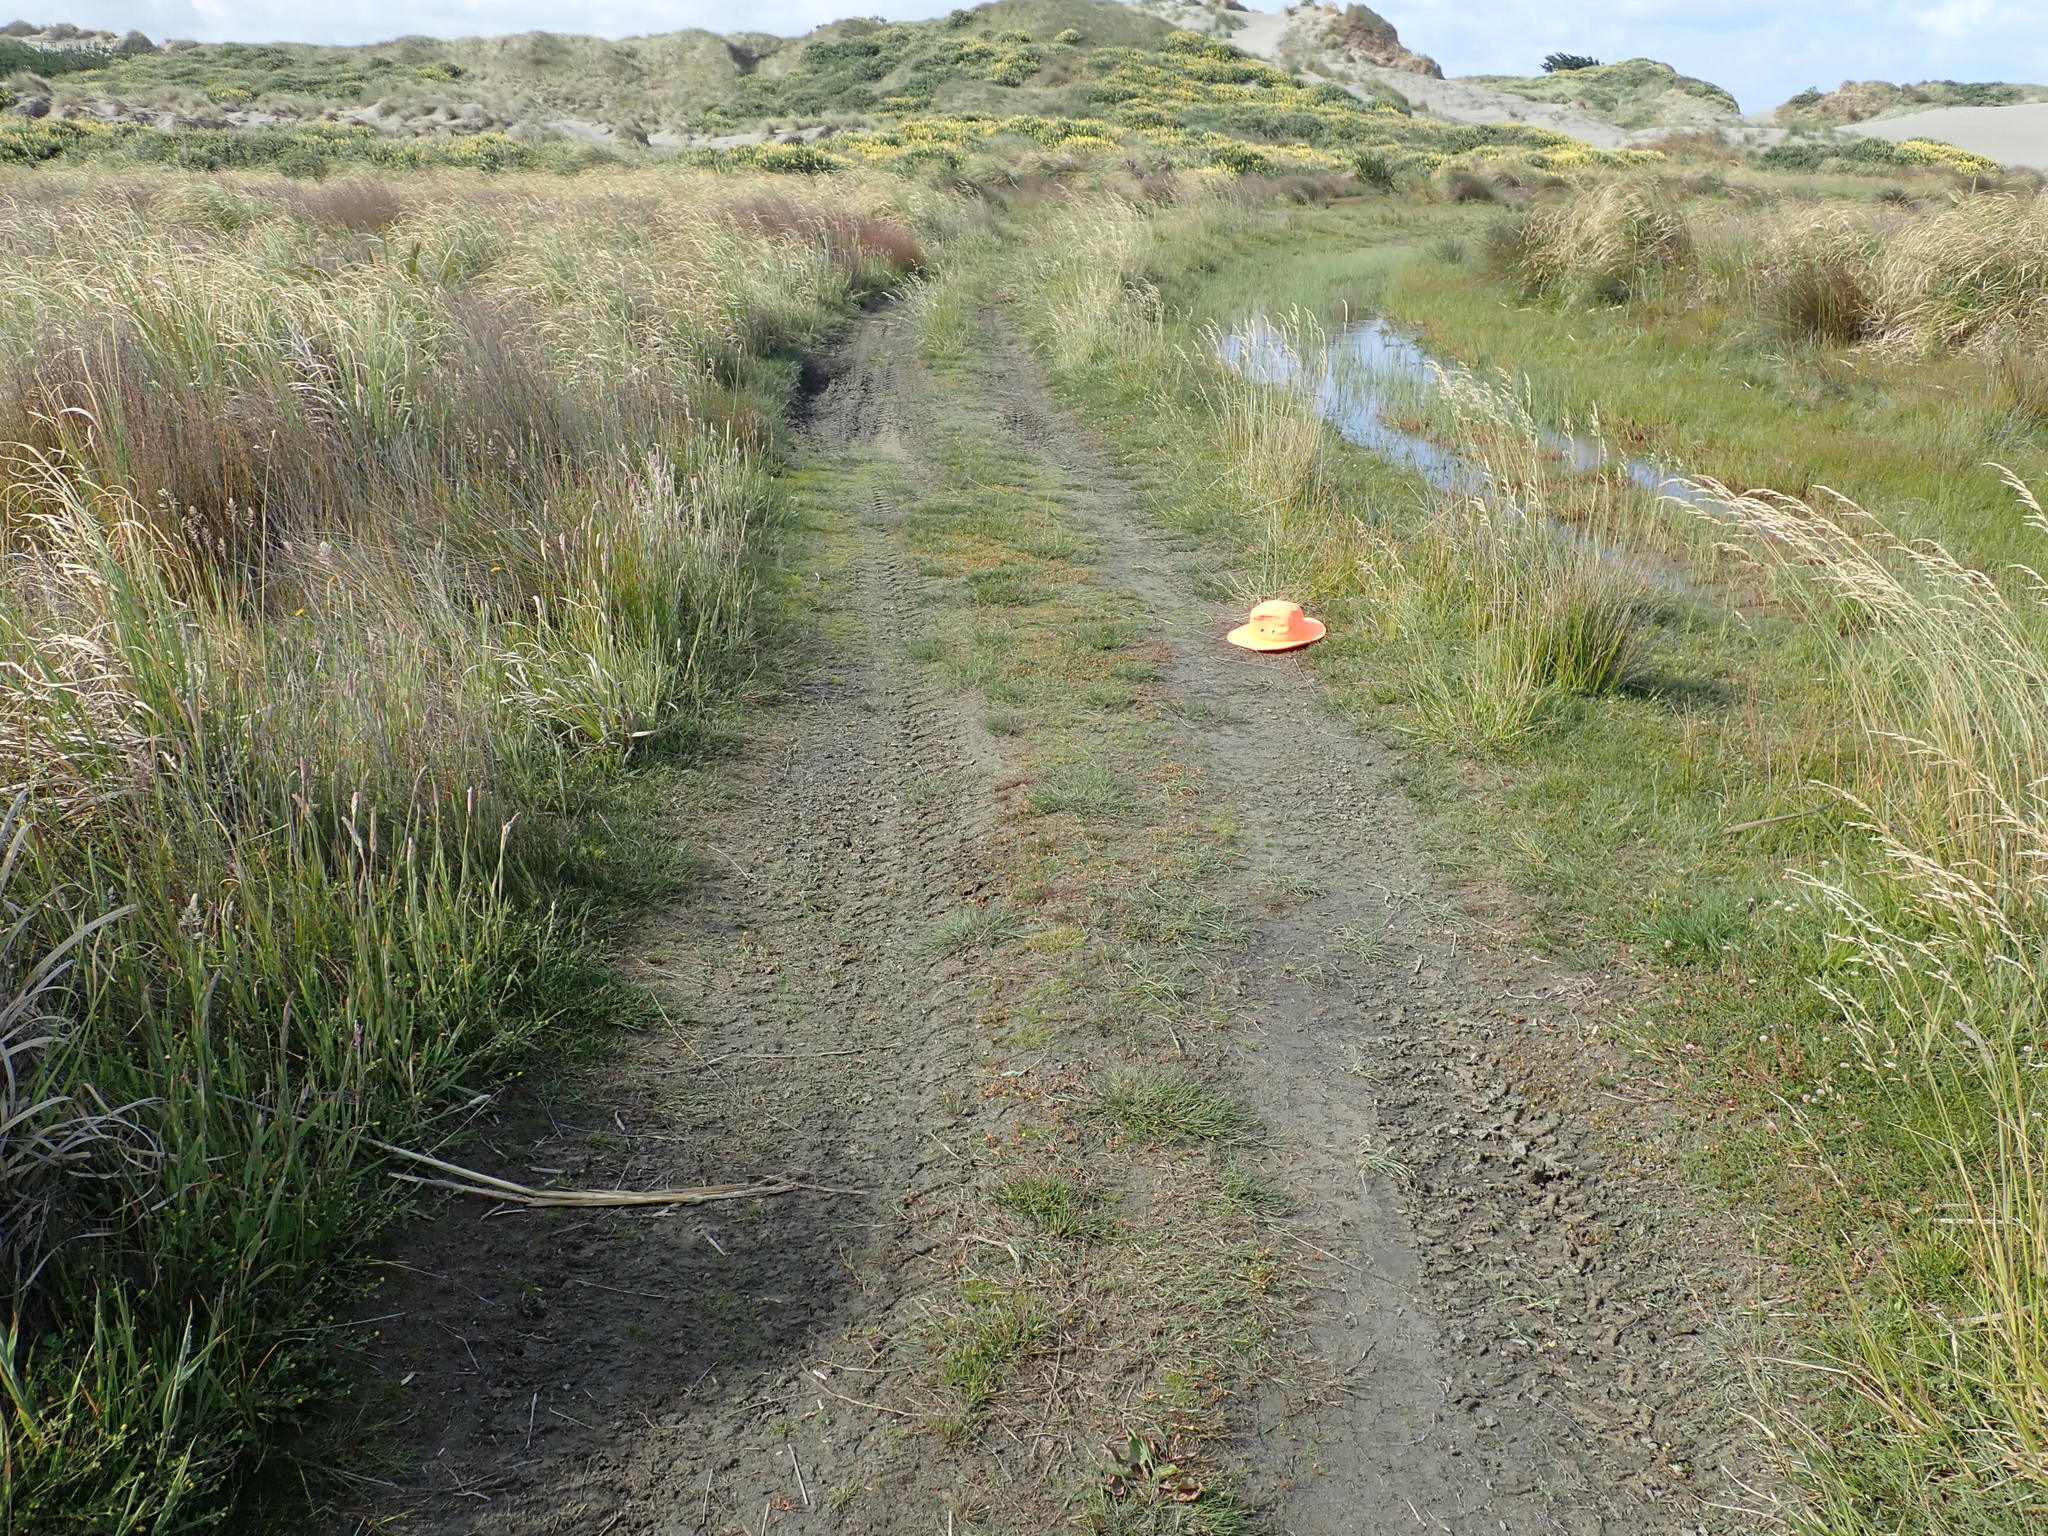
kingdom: Plantae
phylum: Tracheophyta
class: Liliopsida
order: Poales
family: Cyperaceae
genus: Isolepis
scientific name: Isolepis basilaris
